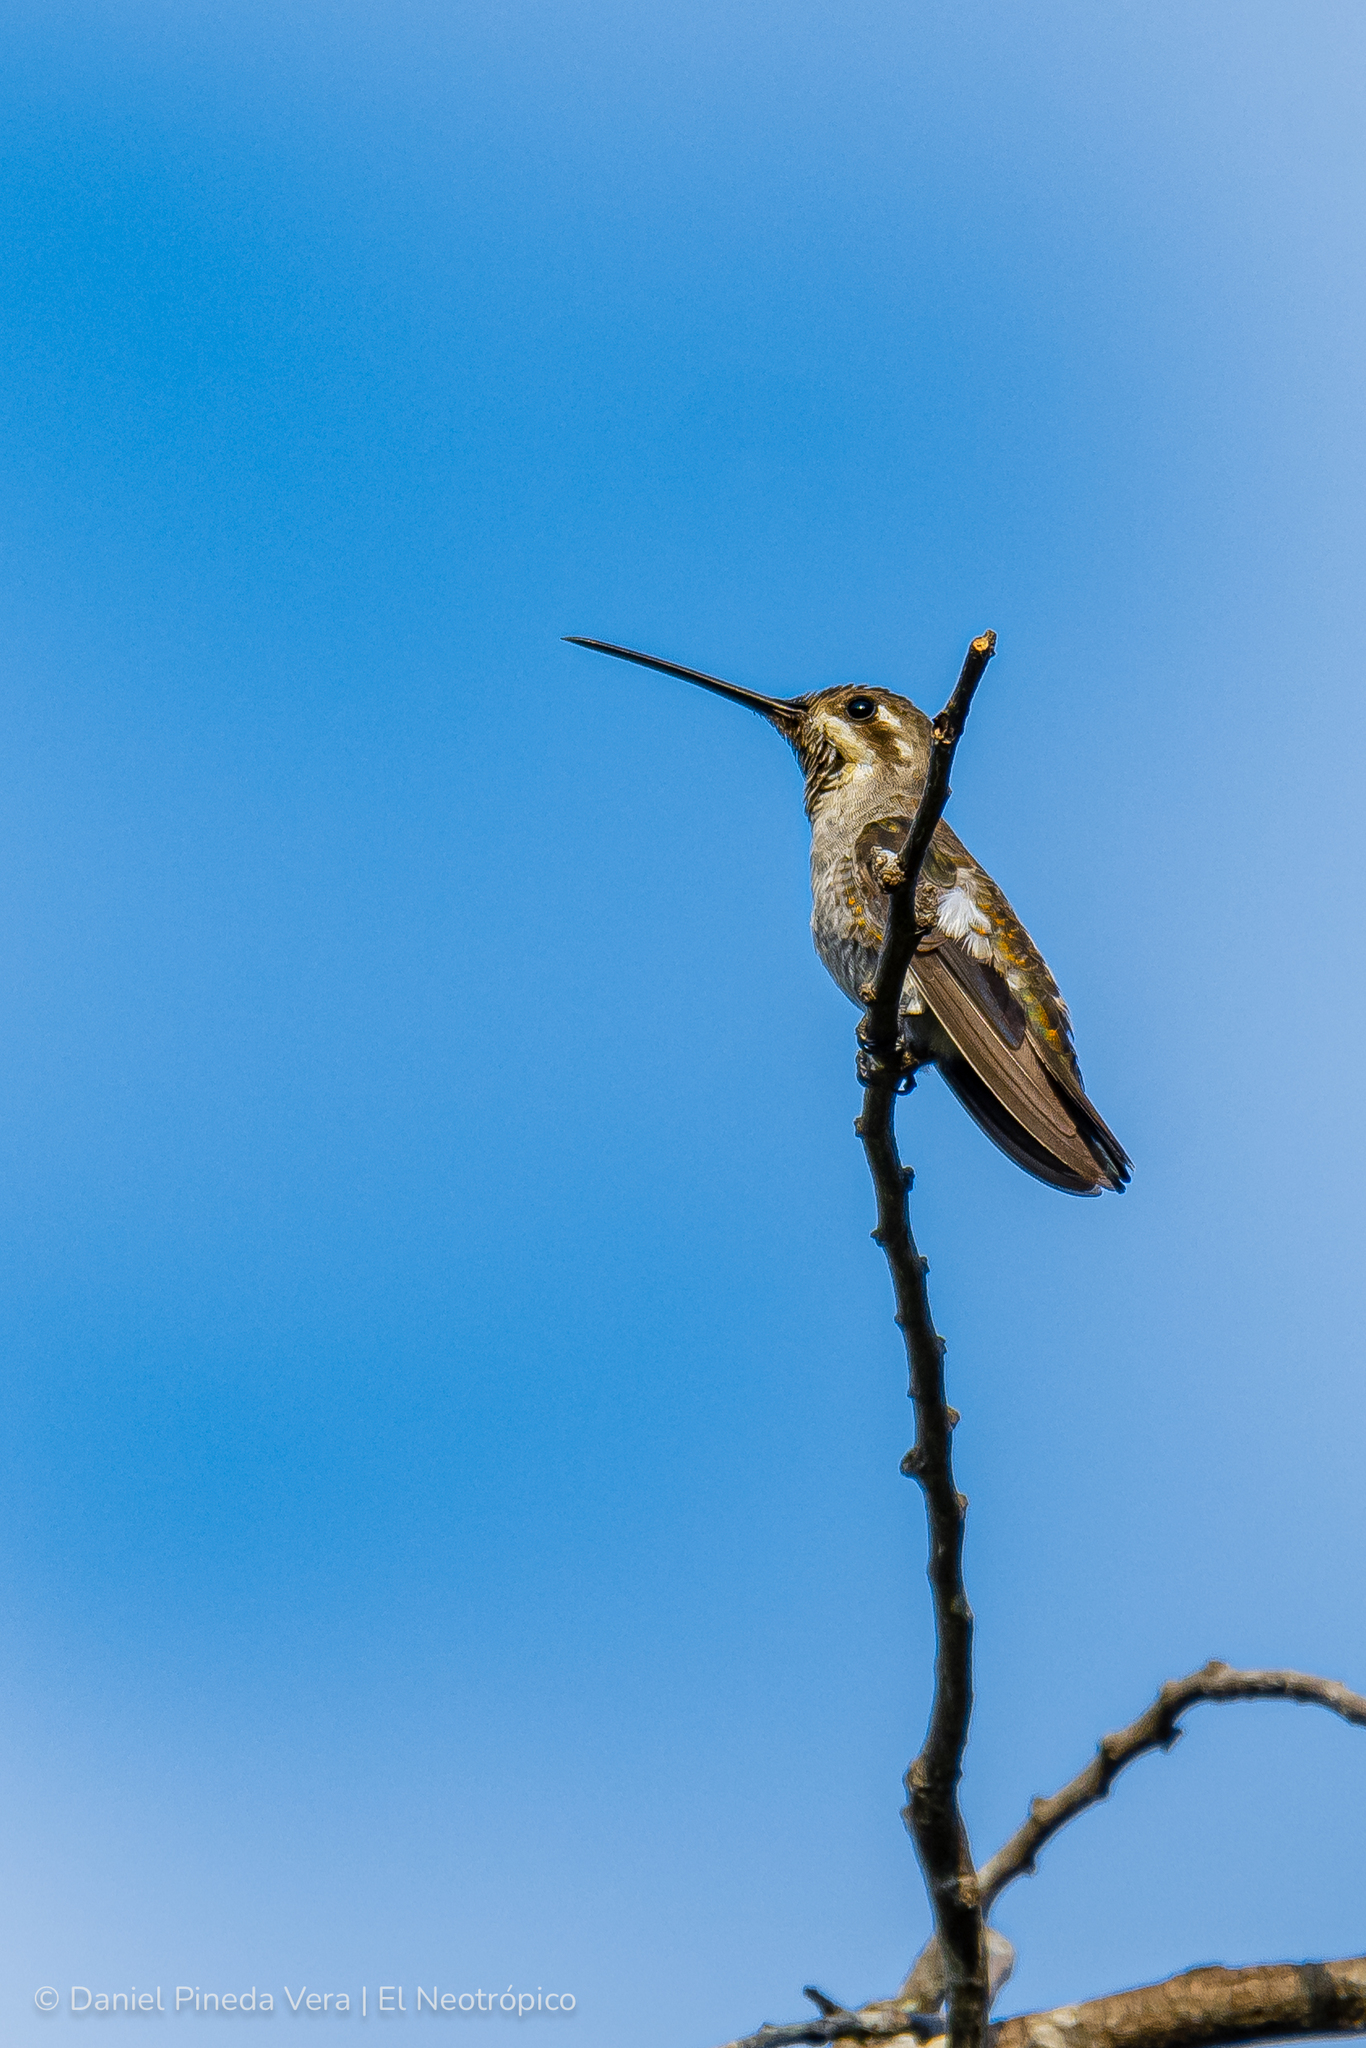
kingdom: Animalia
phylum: Chordata
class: Aves
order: Apodiformes
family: Trochilidae
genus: Heliomaster
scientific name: Heliomaster constantii
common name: Plain-capped starthroat
